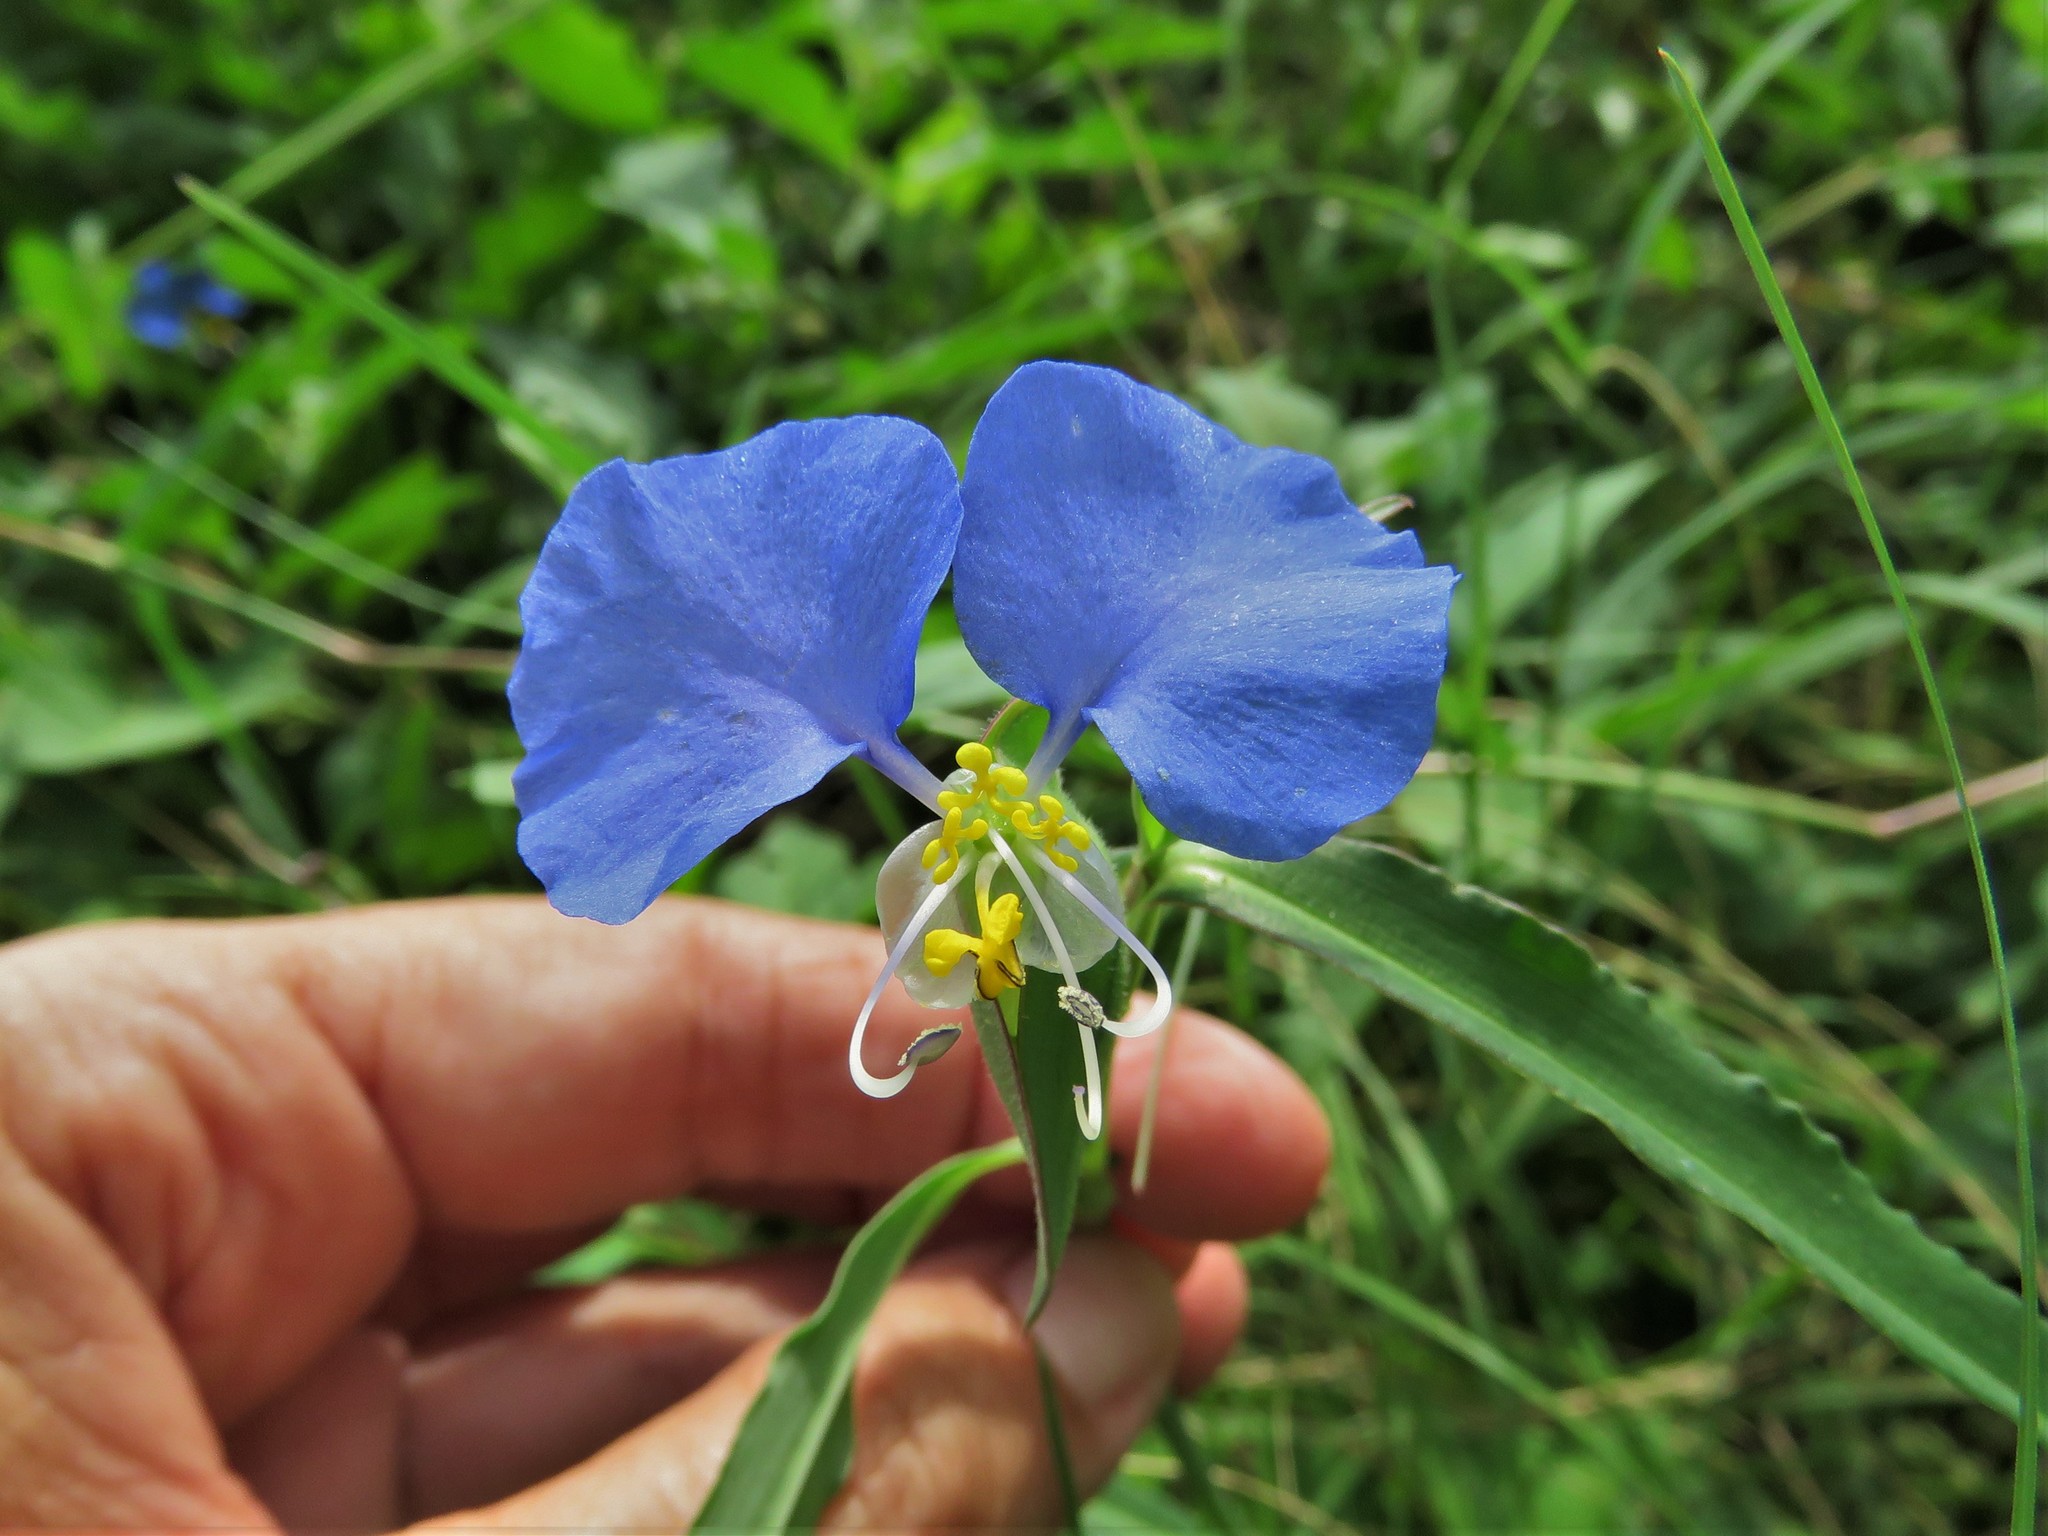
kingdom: Plantae
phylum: Tracheophyta
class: Liliopsida
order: Commelinales
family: Commelinaceae
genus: Commelina
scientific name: Commelina erecta
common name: Blousel blommetjie
